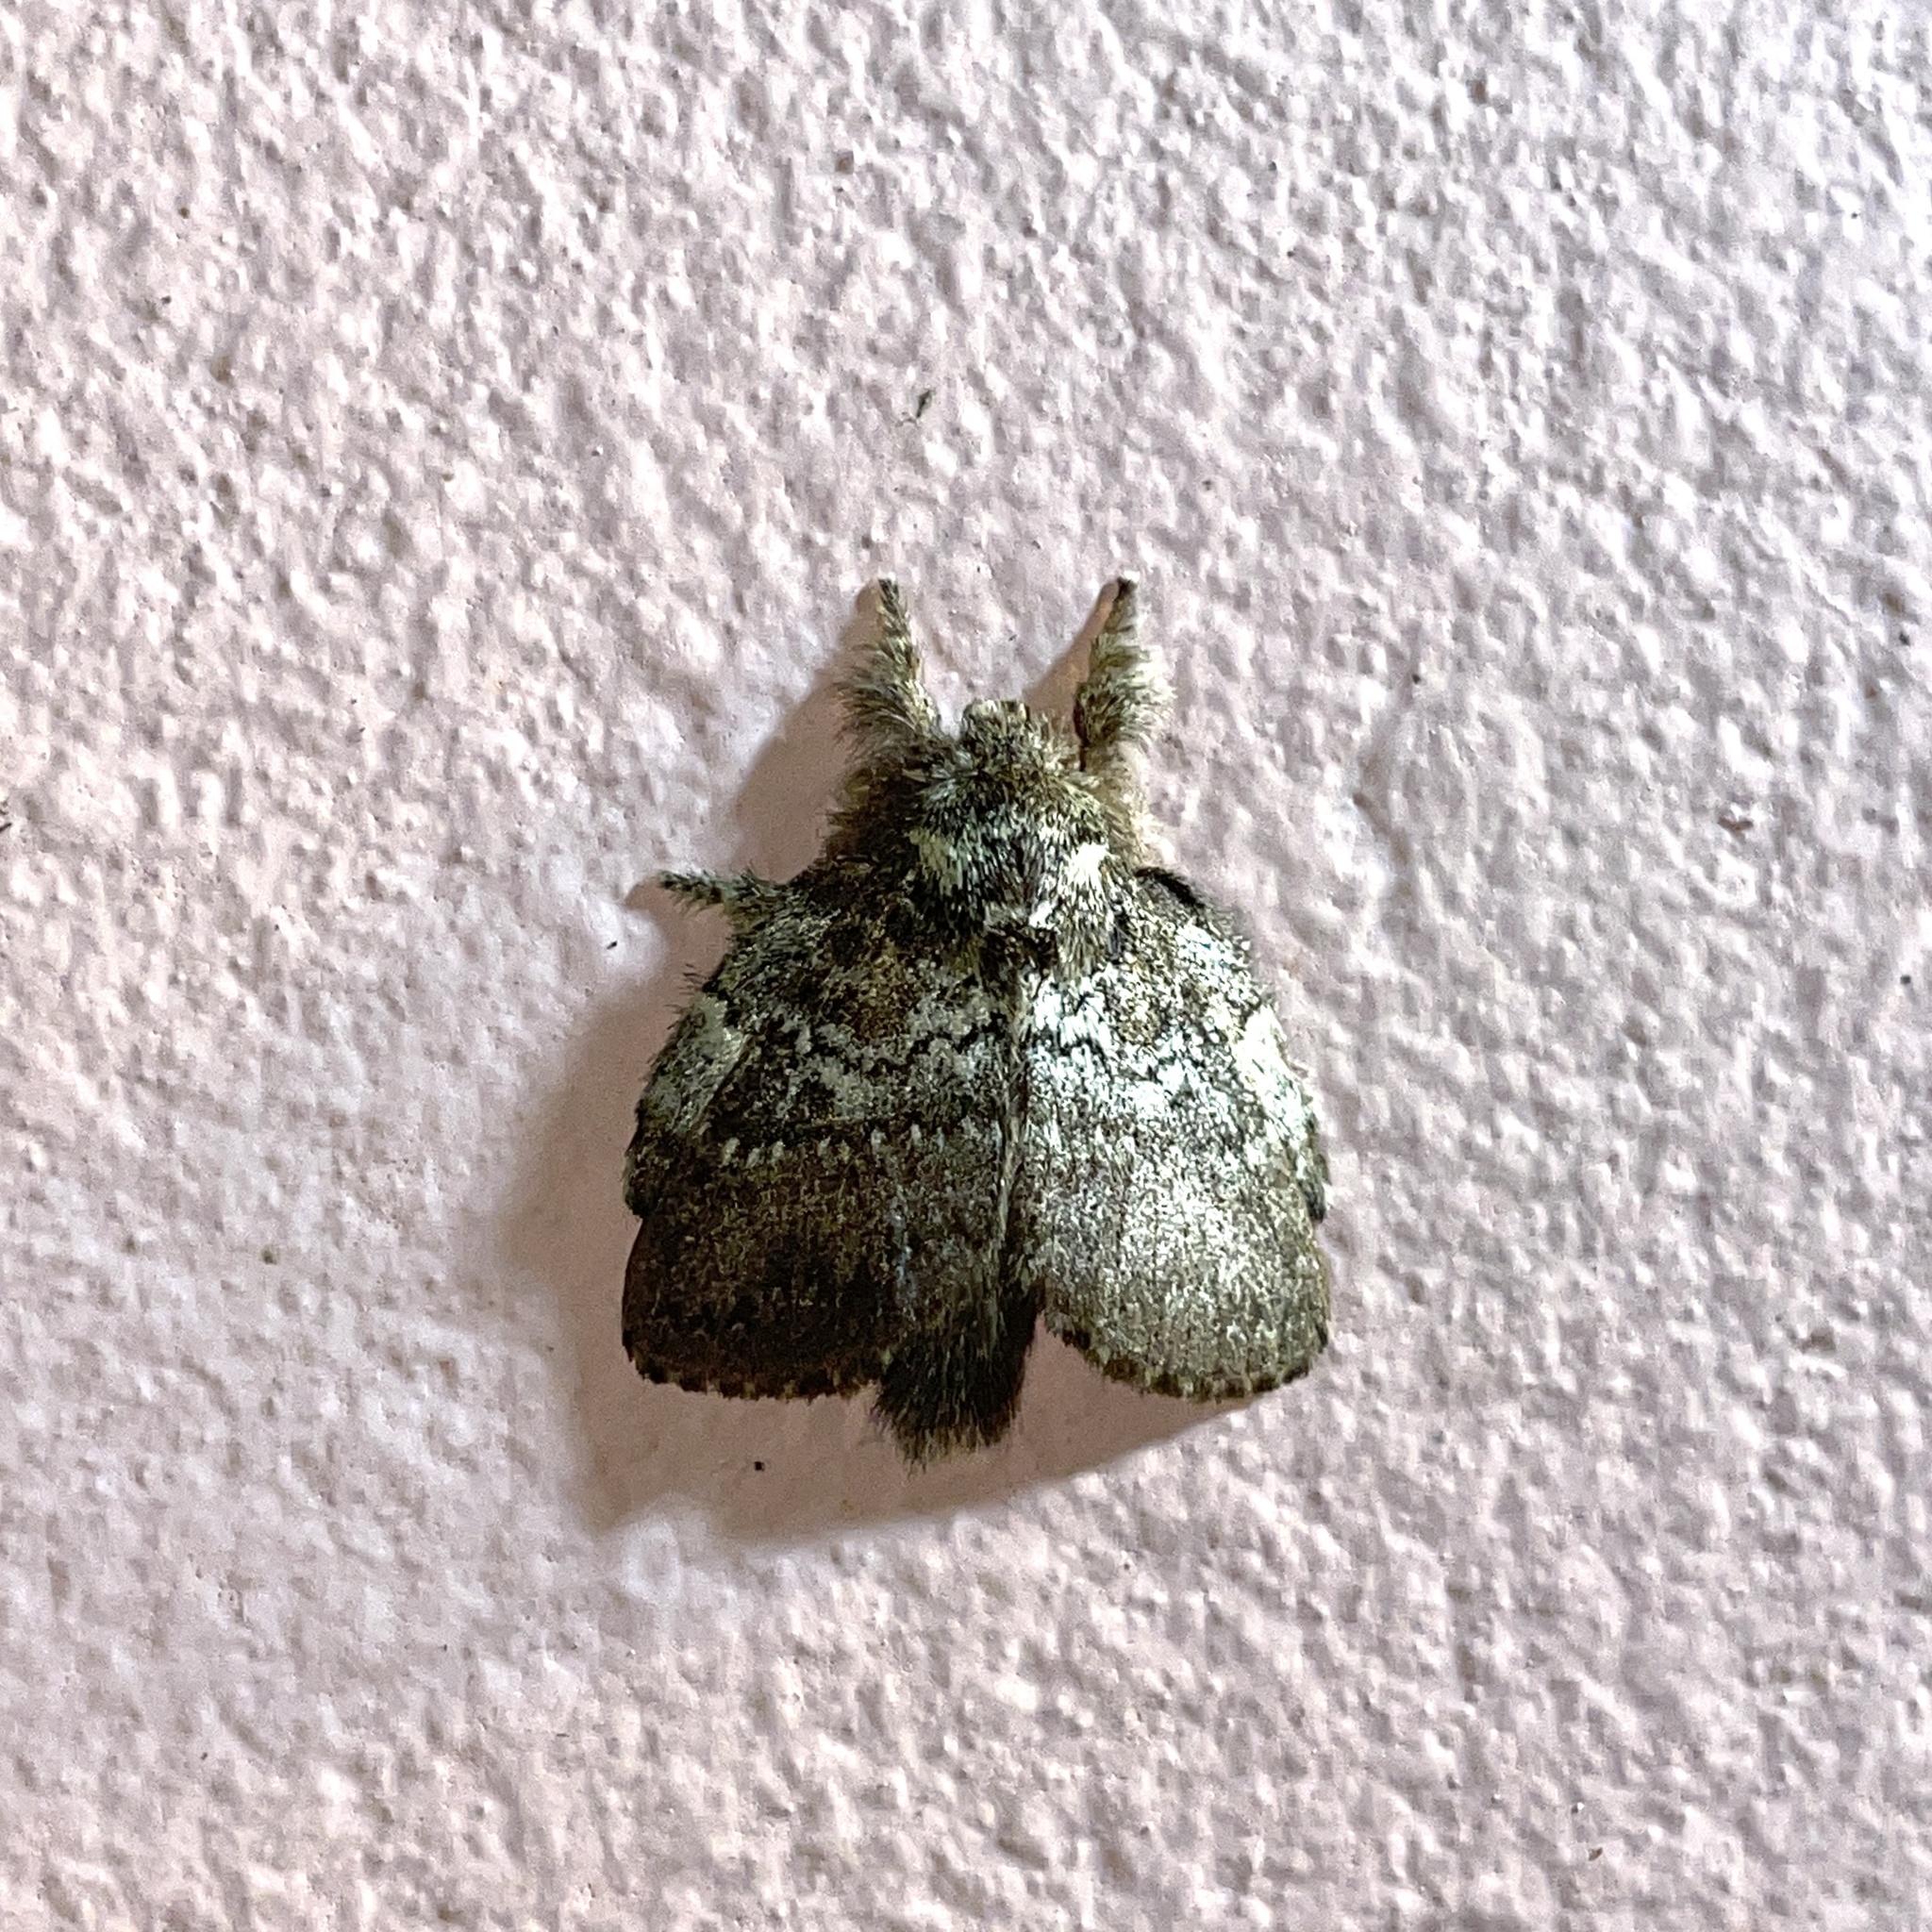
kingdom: Animalia
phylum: Arthropoda
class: Insecta
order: Lepidoptera
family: Lasiocampidae
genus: Euglyphis
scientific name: Euglyphis mediana
